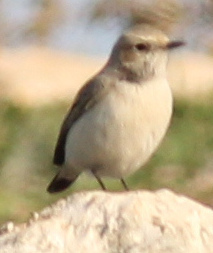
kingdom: Animalia
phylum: Chordata
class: Aves
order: Passeriformes
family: Muscicapidae
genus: Oenanthe
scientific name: Oenanthe finschii
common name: Finsch's wheatear
